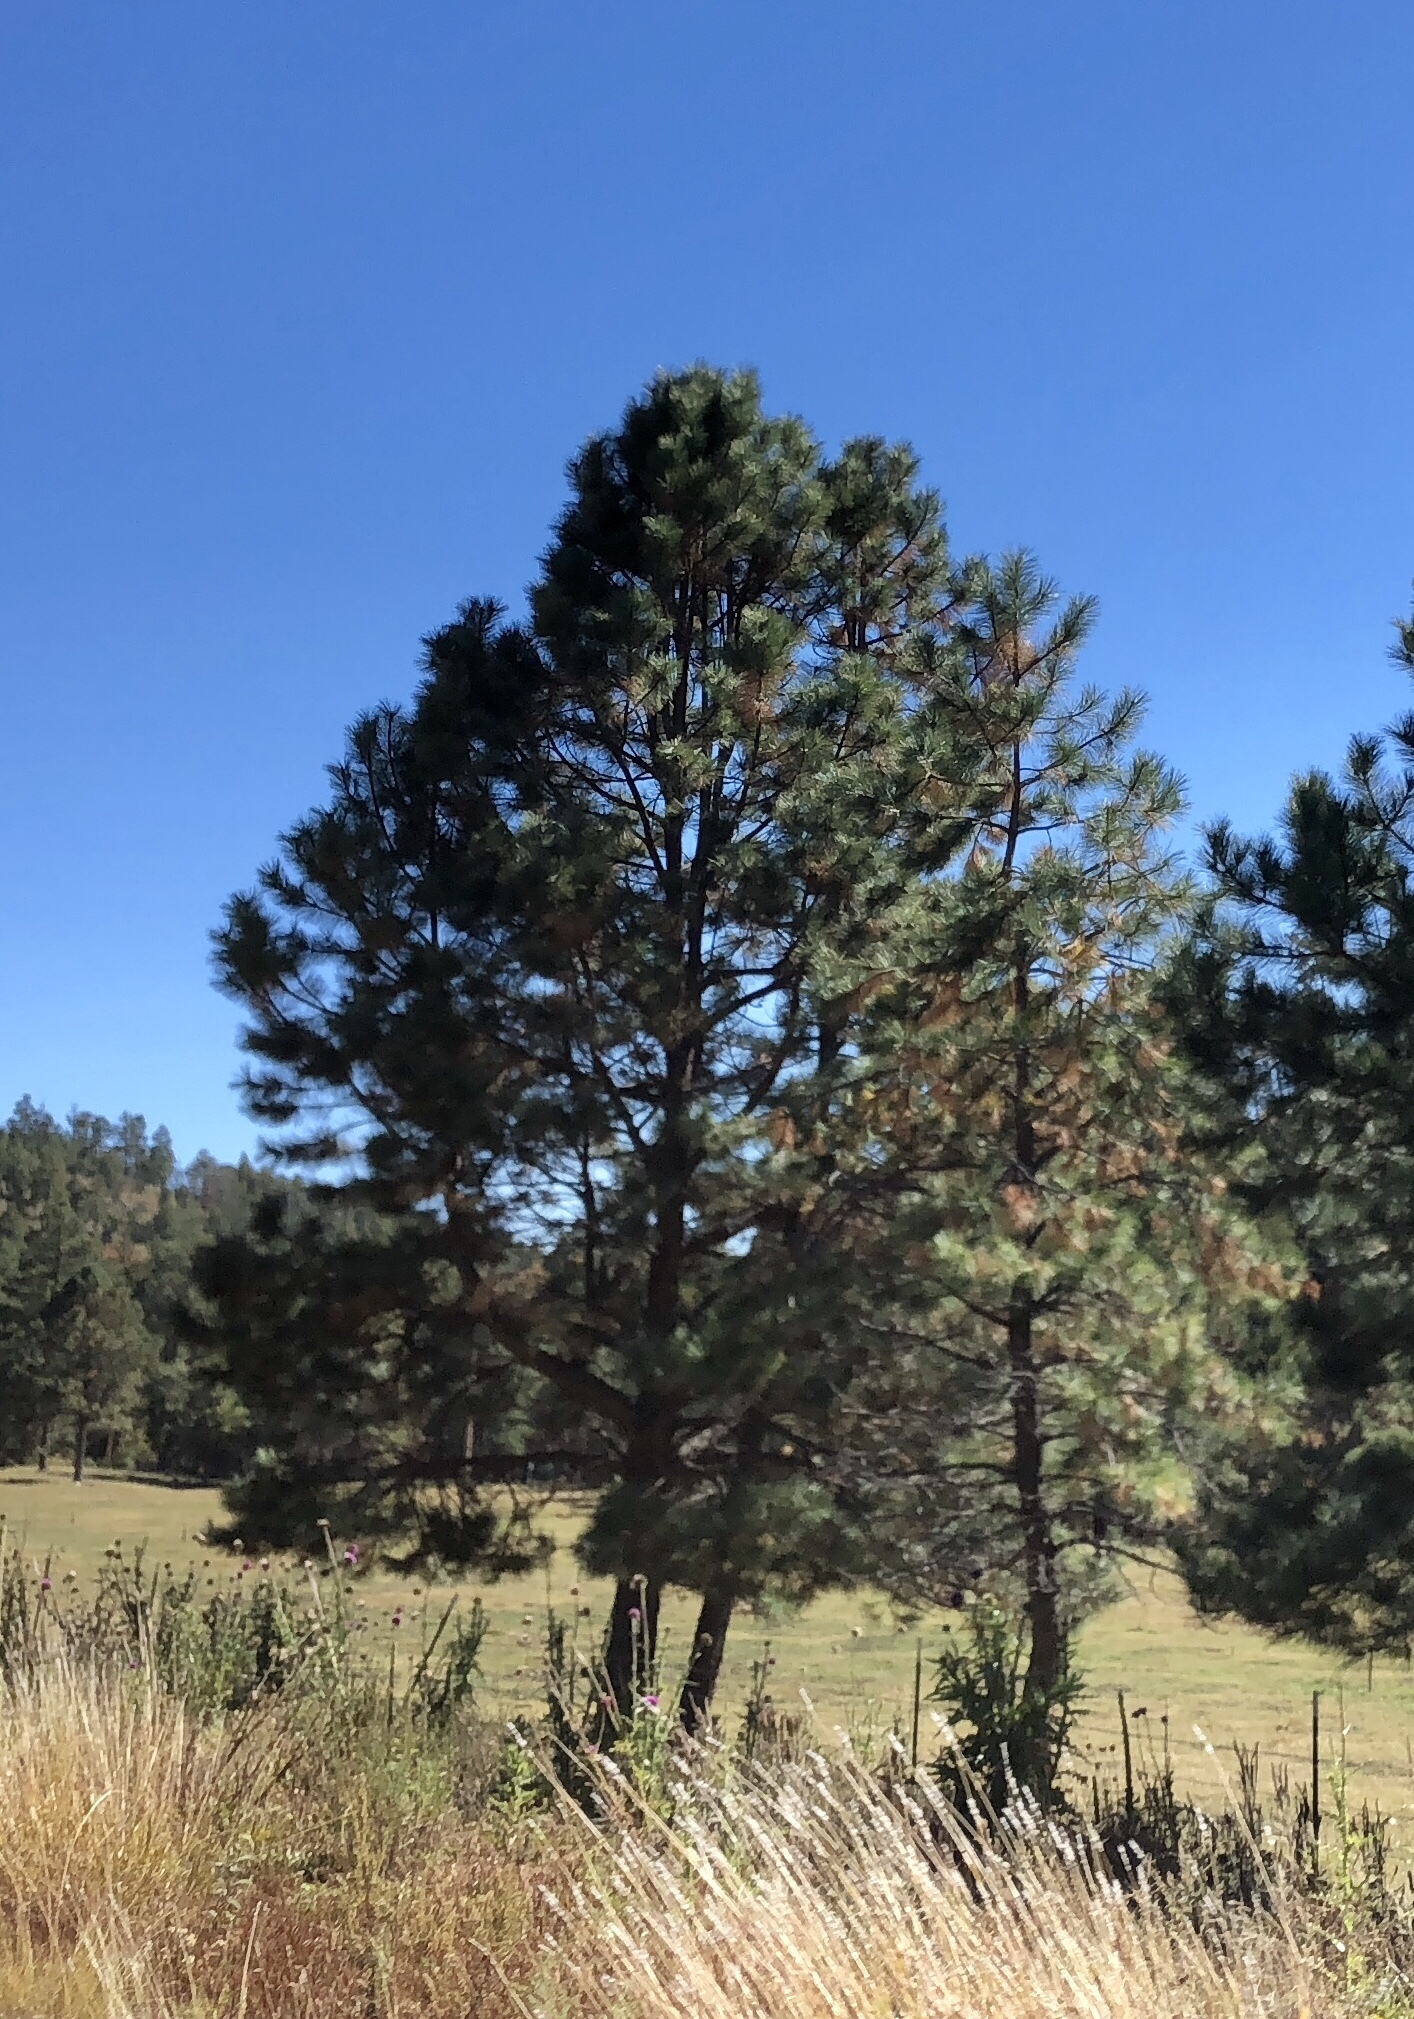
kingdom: Plantae
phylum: Tracheophyta
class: Pinopsida
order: Pinales
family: Pinaceae
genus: Pinus
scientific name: Pinus ponderosa
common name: Western yellow-pine
